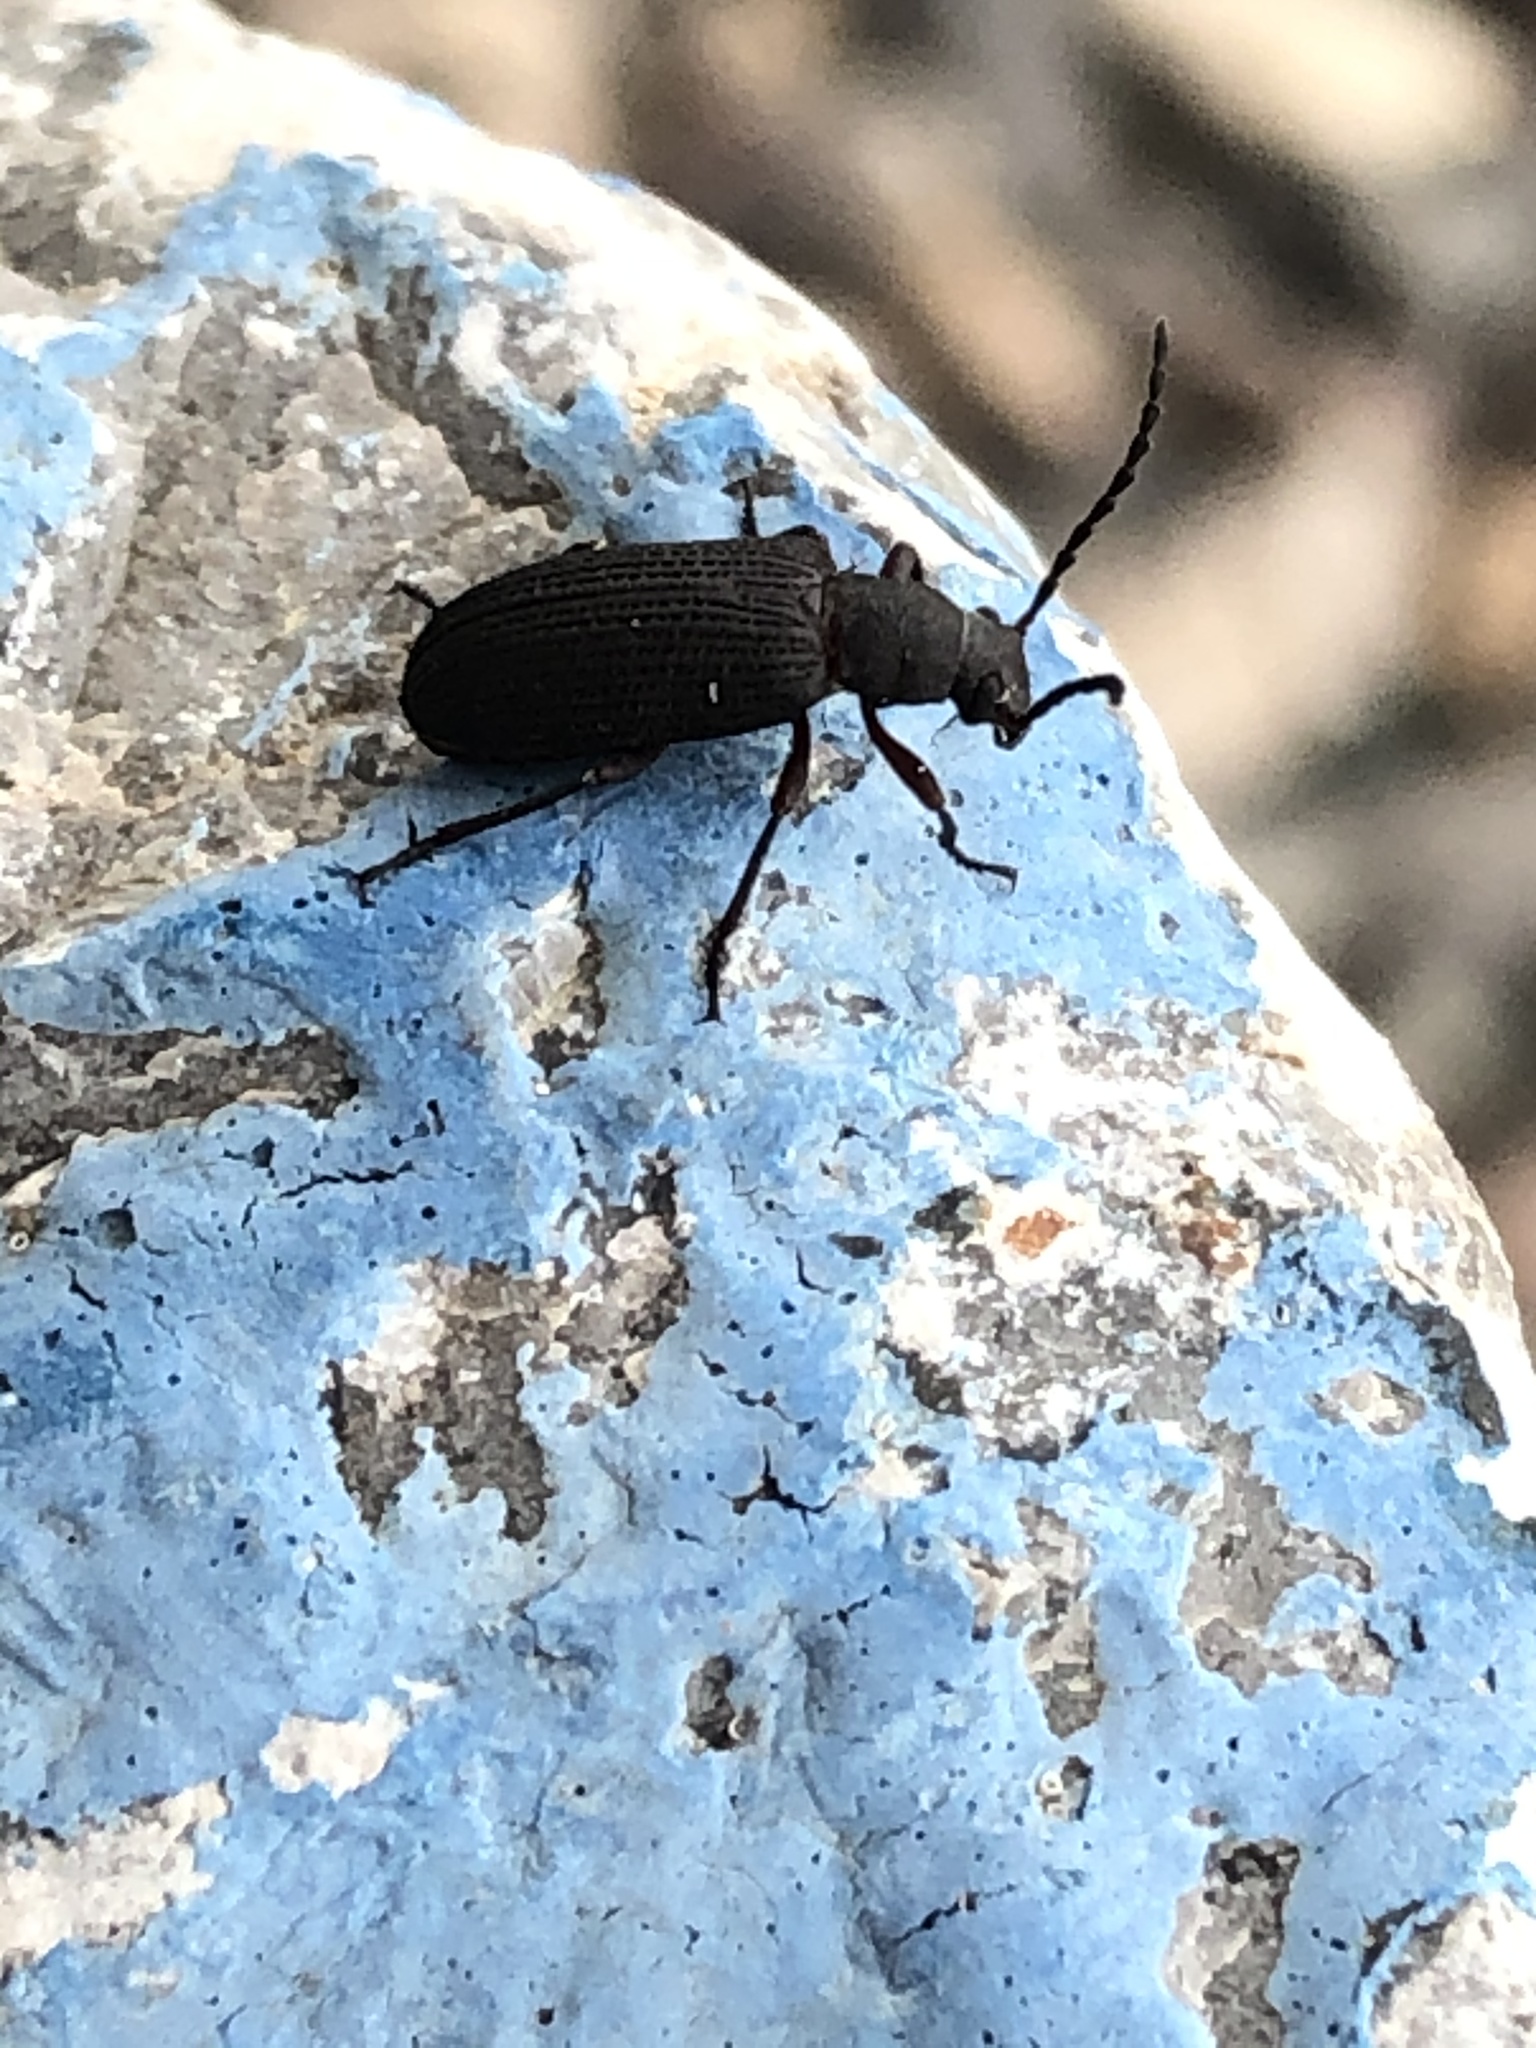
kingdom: Animalia
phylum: Arthropoda
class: Insecta
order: Coleoptera
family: Tenebrionidae
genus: Helops
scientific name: Helops arizonensis
